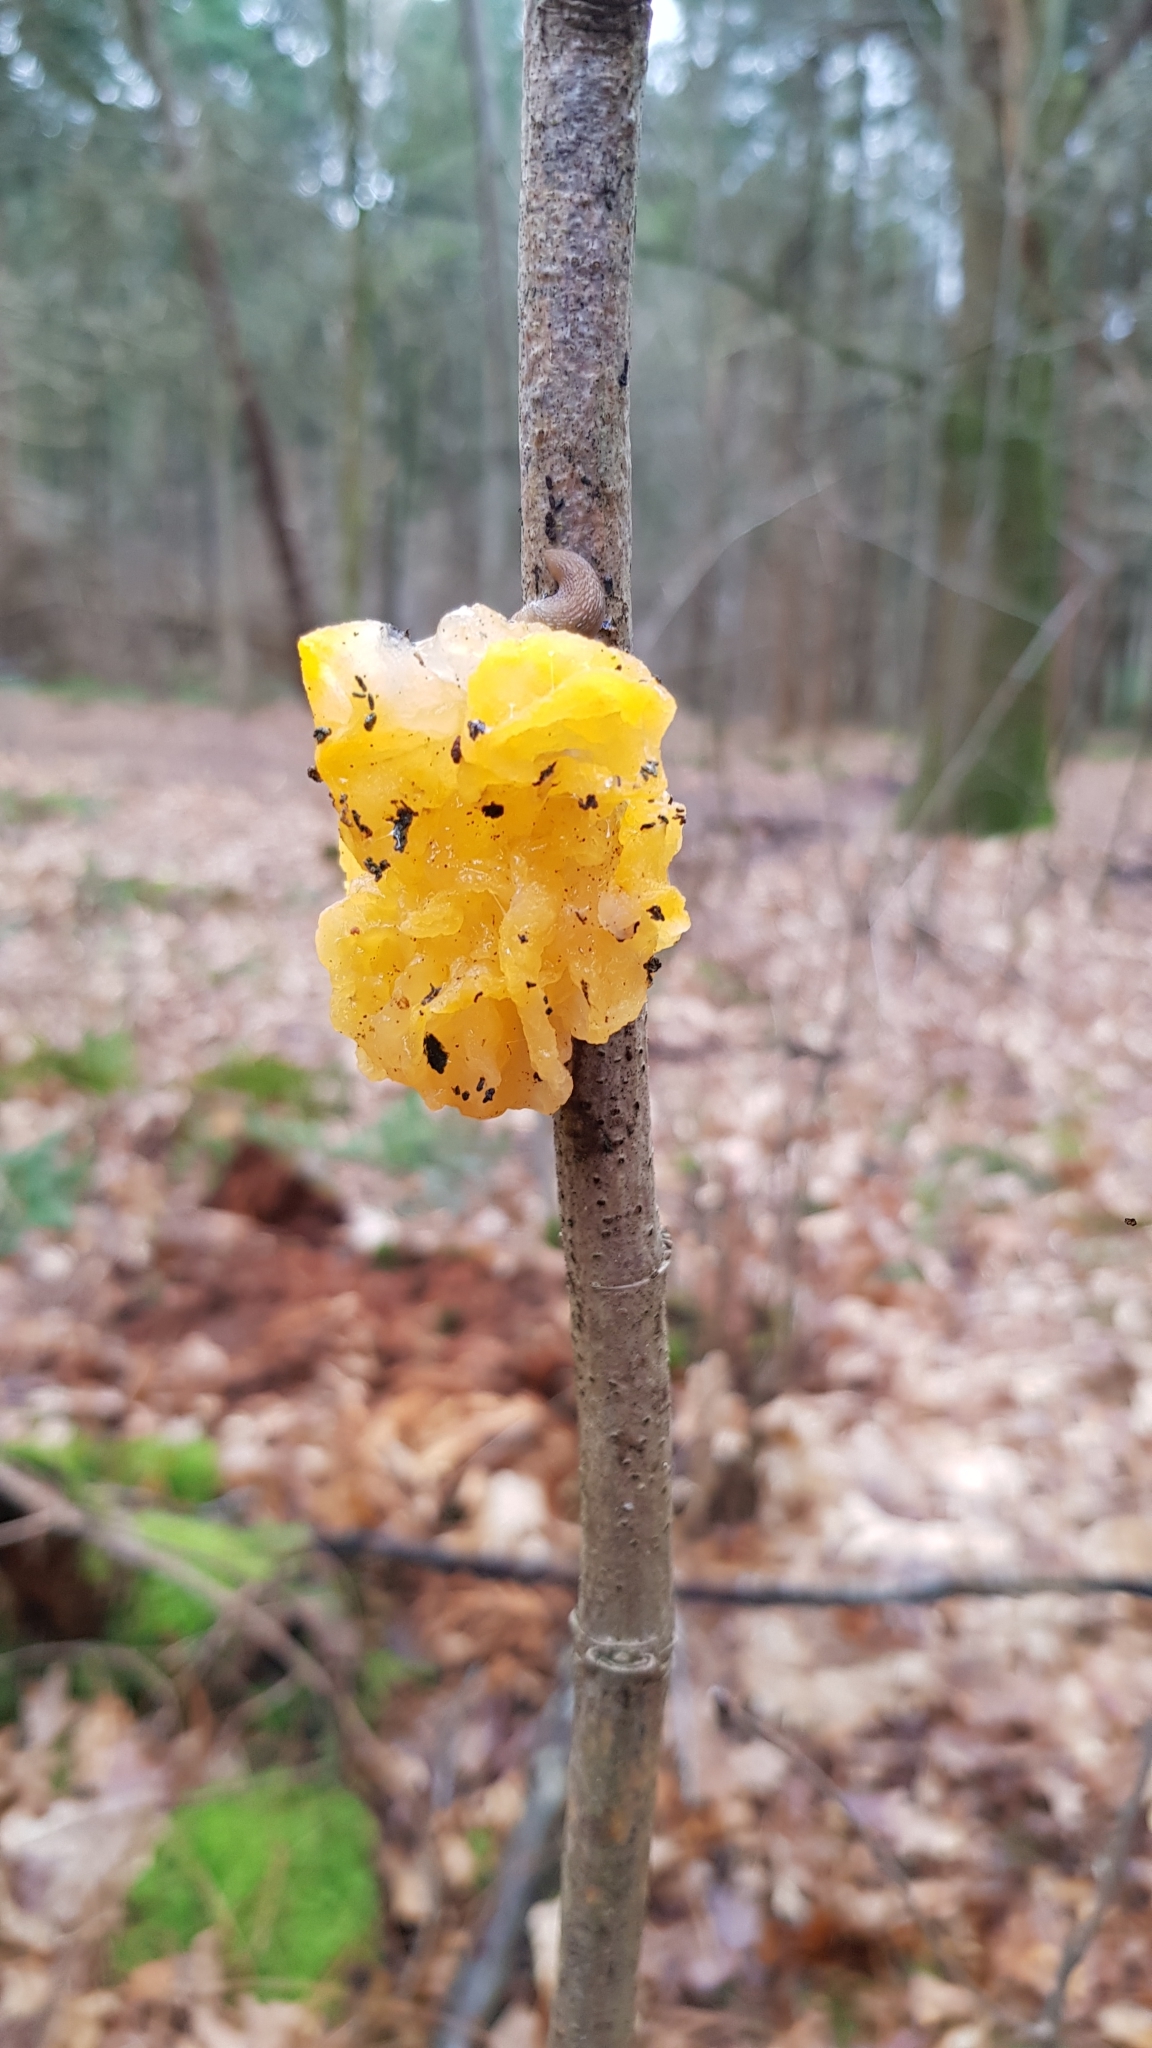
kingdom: Fungi
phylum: Basidiomycota
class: Tremellomycetes
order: Tremellales
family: Tremellaceae
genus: Tremella
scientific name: Tremella mesenterica
